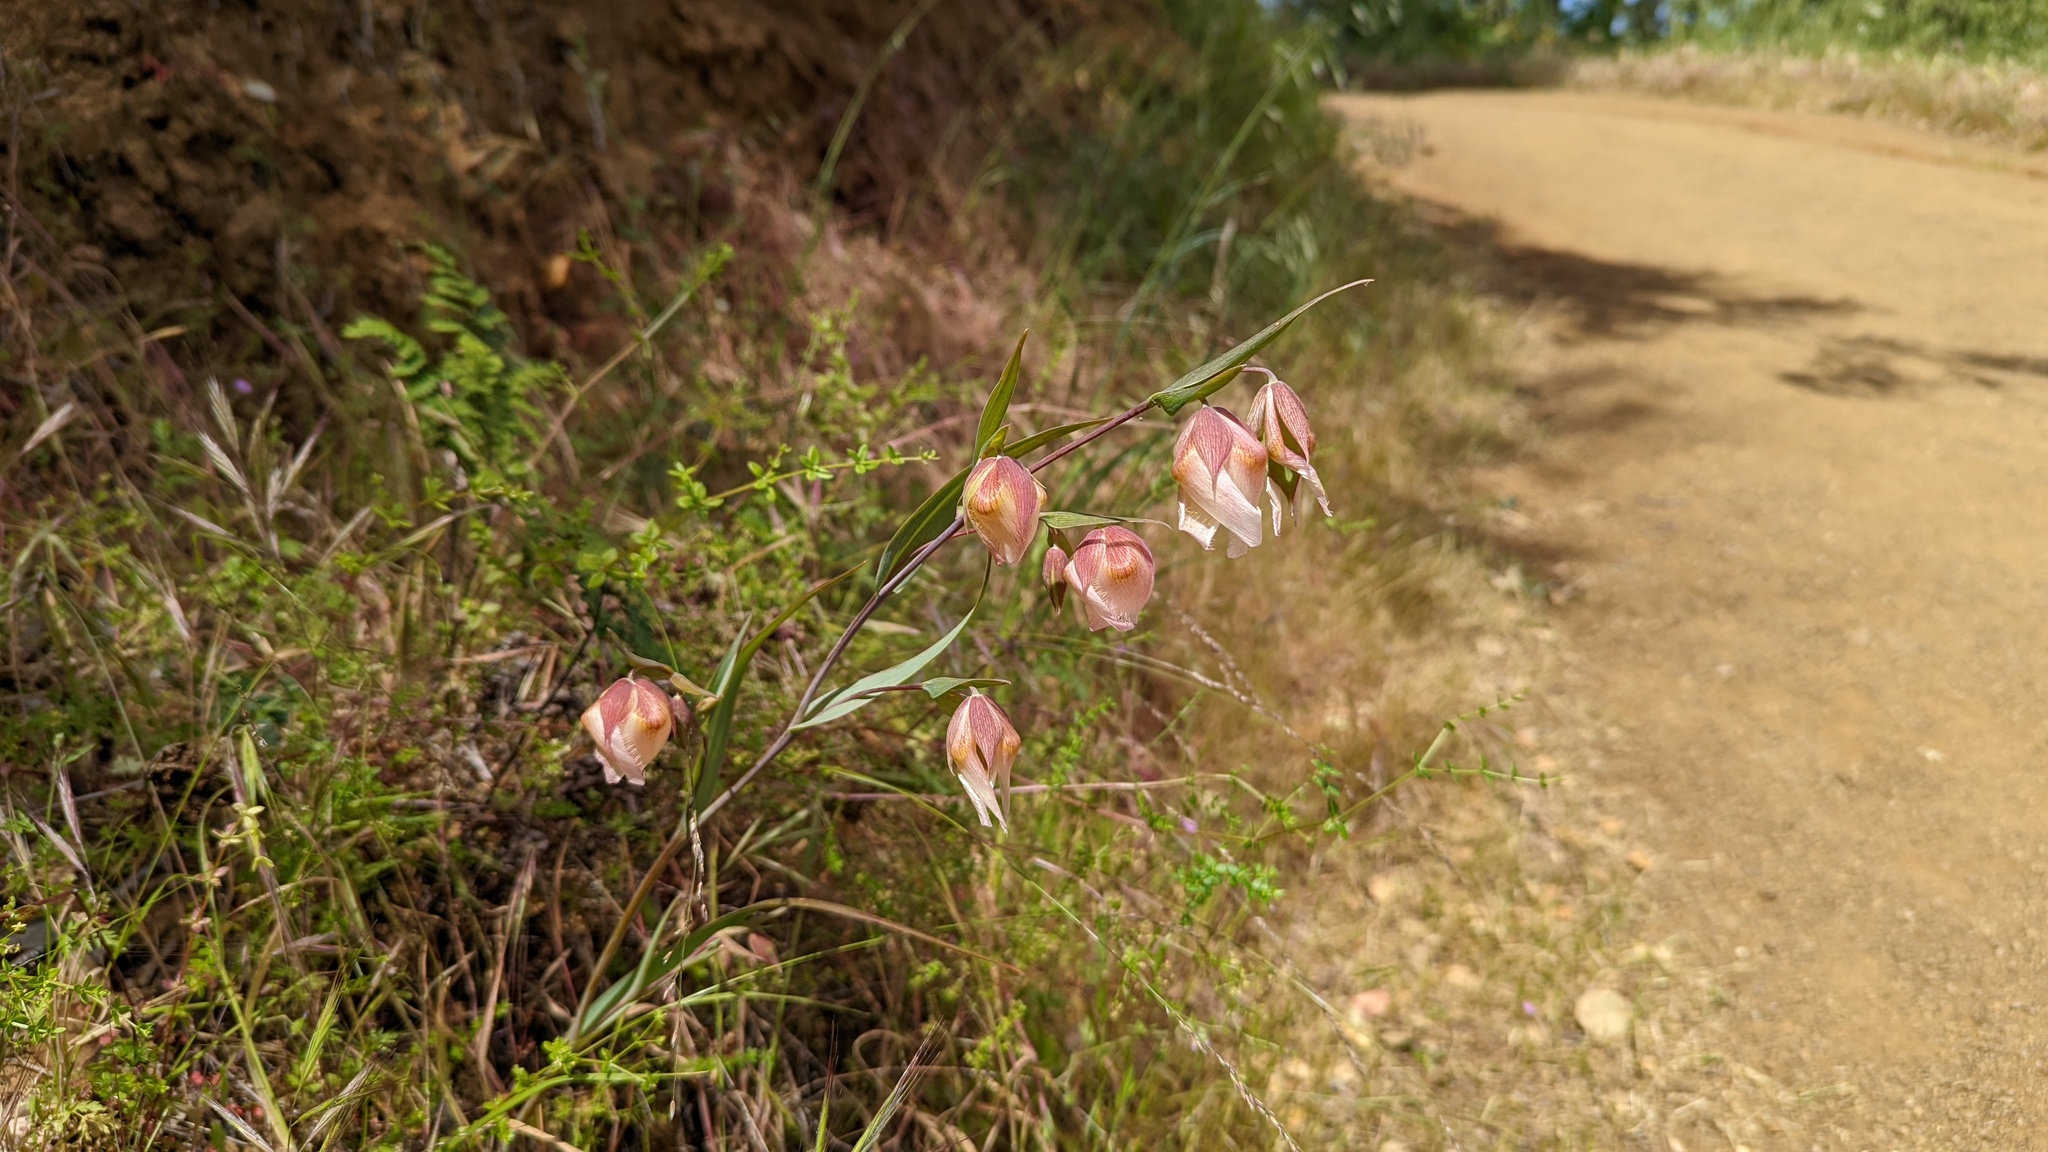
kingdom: Plantae
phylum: Tracheophyta
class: Liliopsida
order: Liliales
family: Liliaceae
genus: Calochortus
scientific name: Calochortus albus
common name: Fairy-lantern
